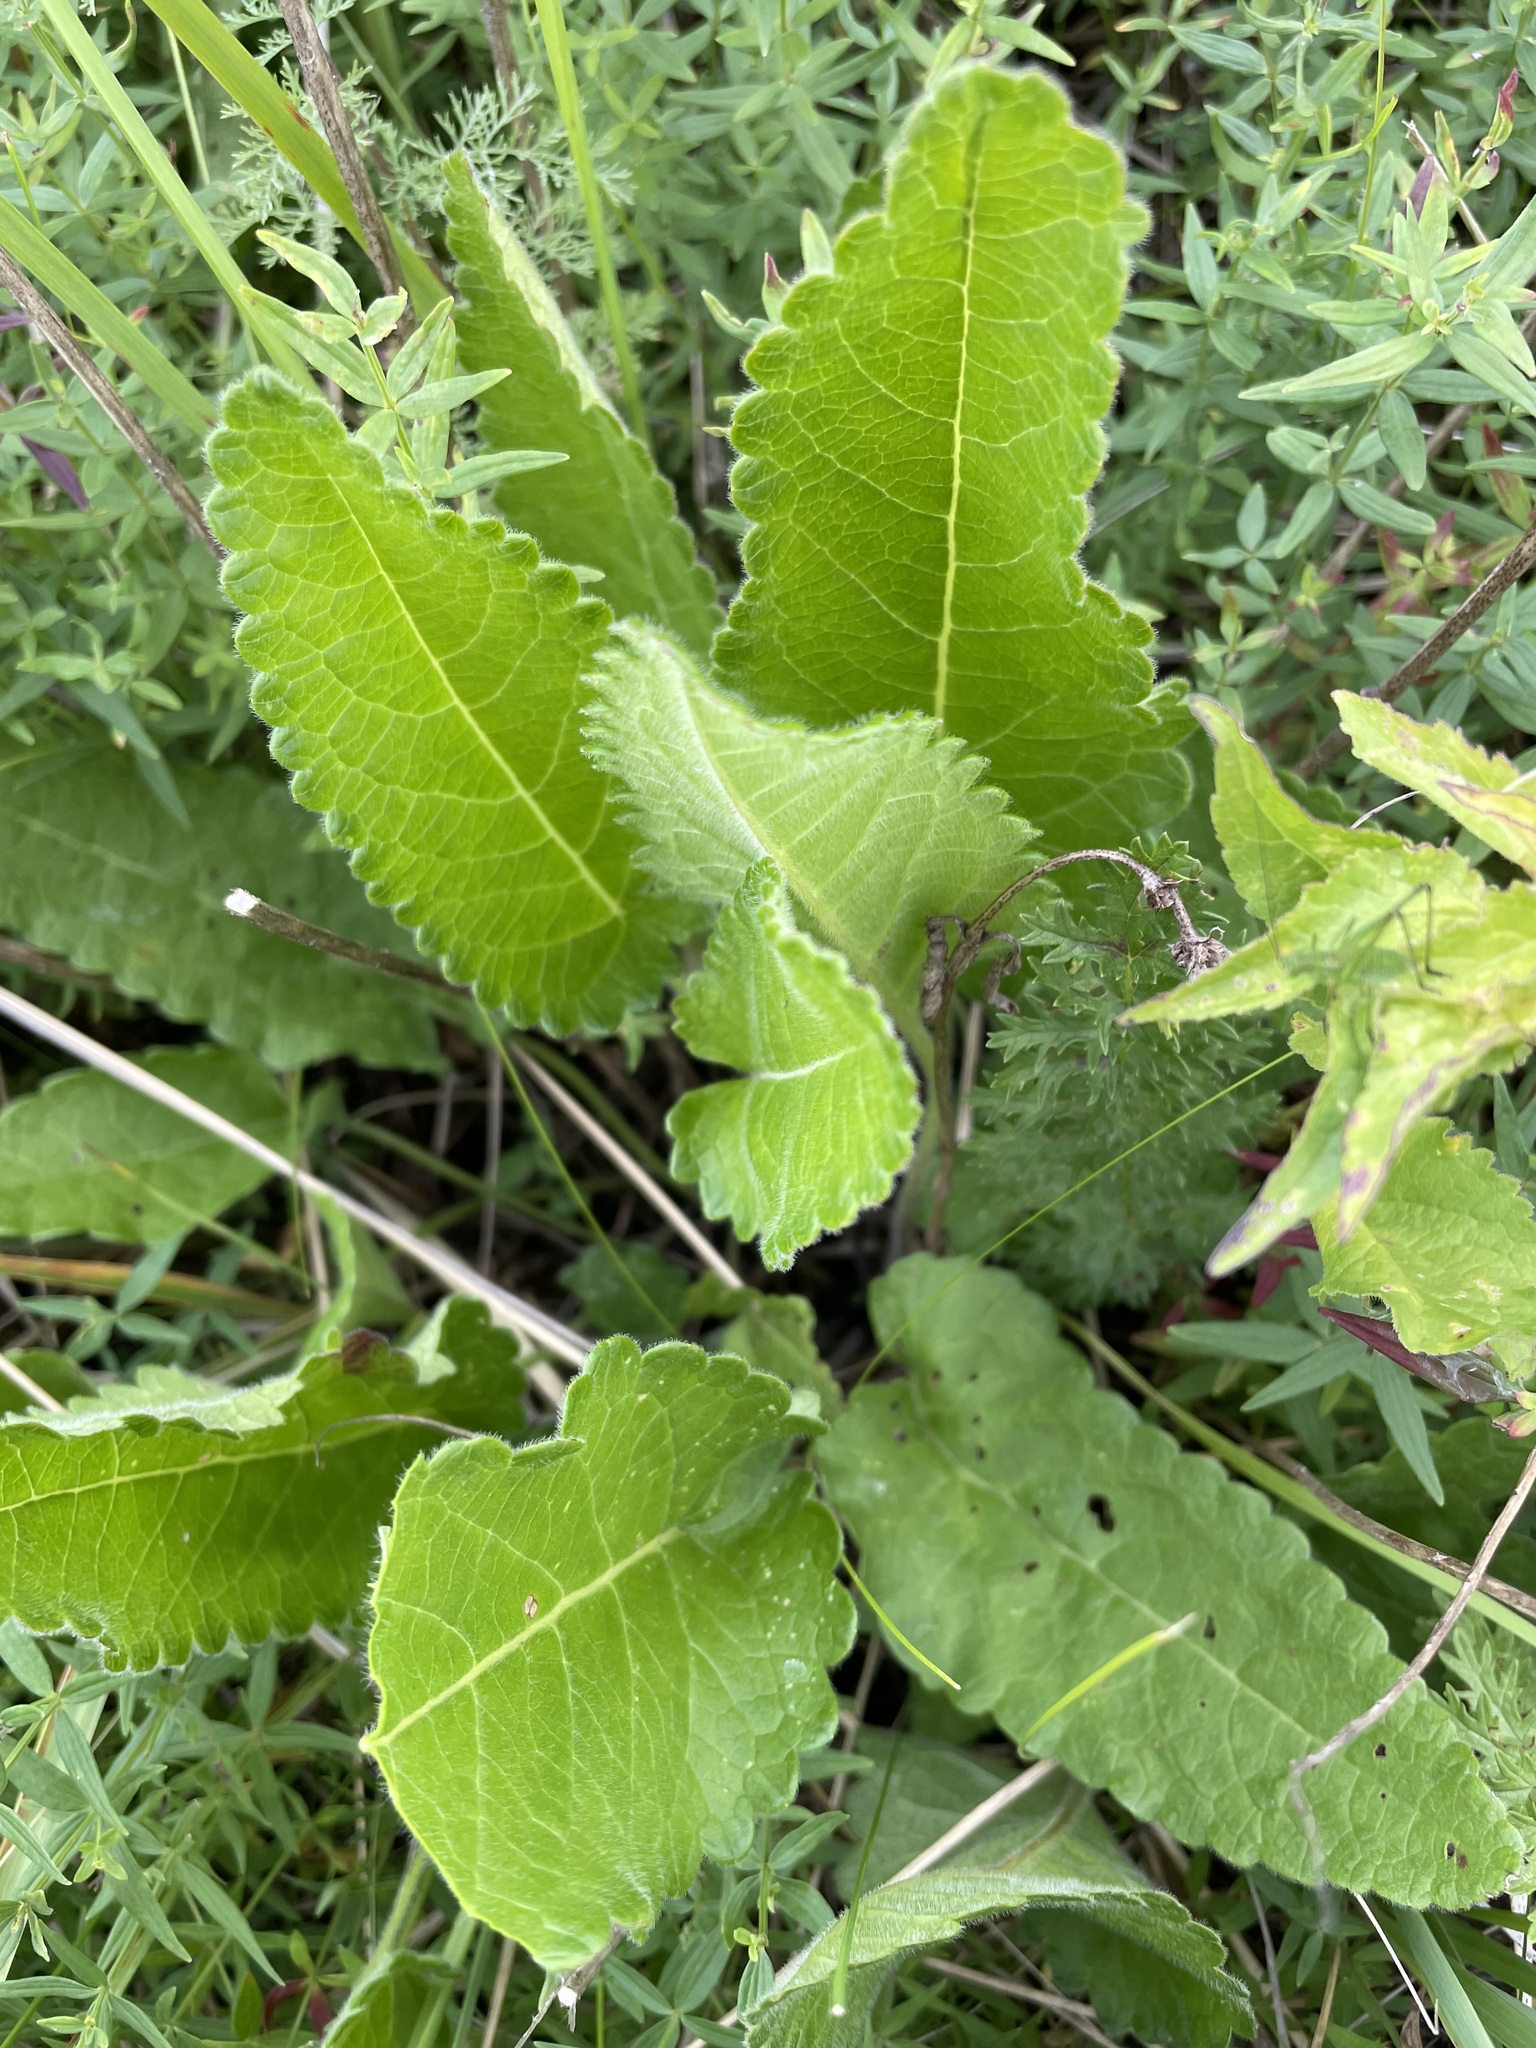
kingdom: Plantae
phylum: Tracheophyta
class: Magnoliopsida
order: Lamiales
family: Lamiaceae
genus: Betonica
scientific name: Betonica officinalis
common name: Bishop's-wort
